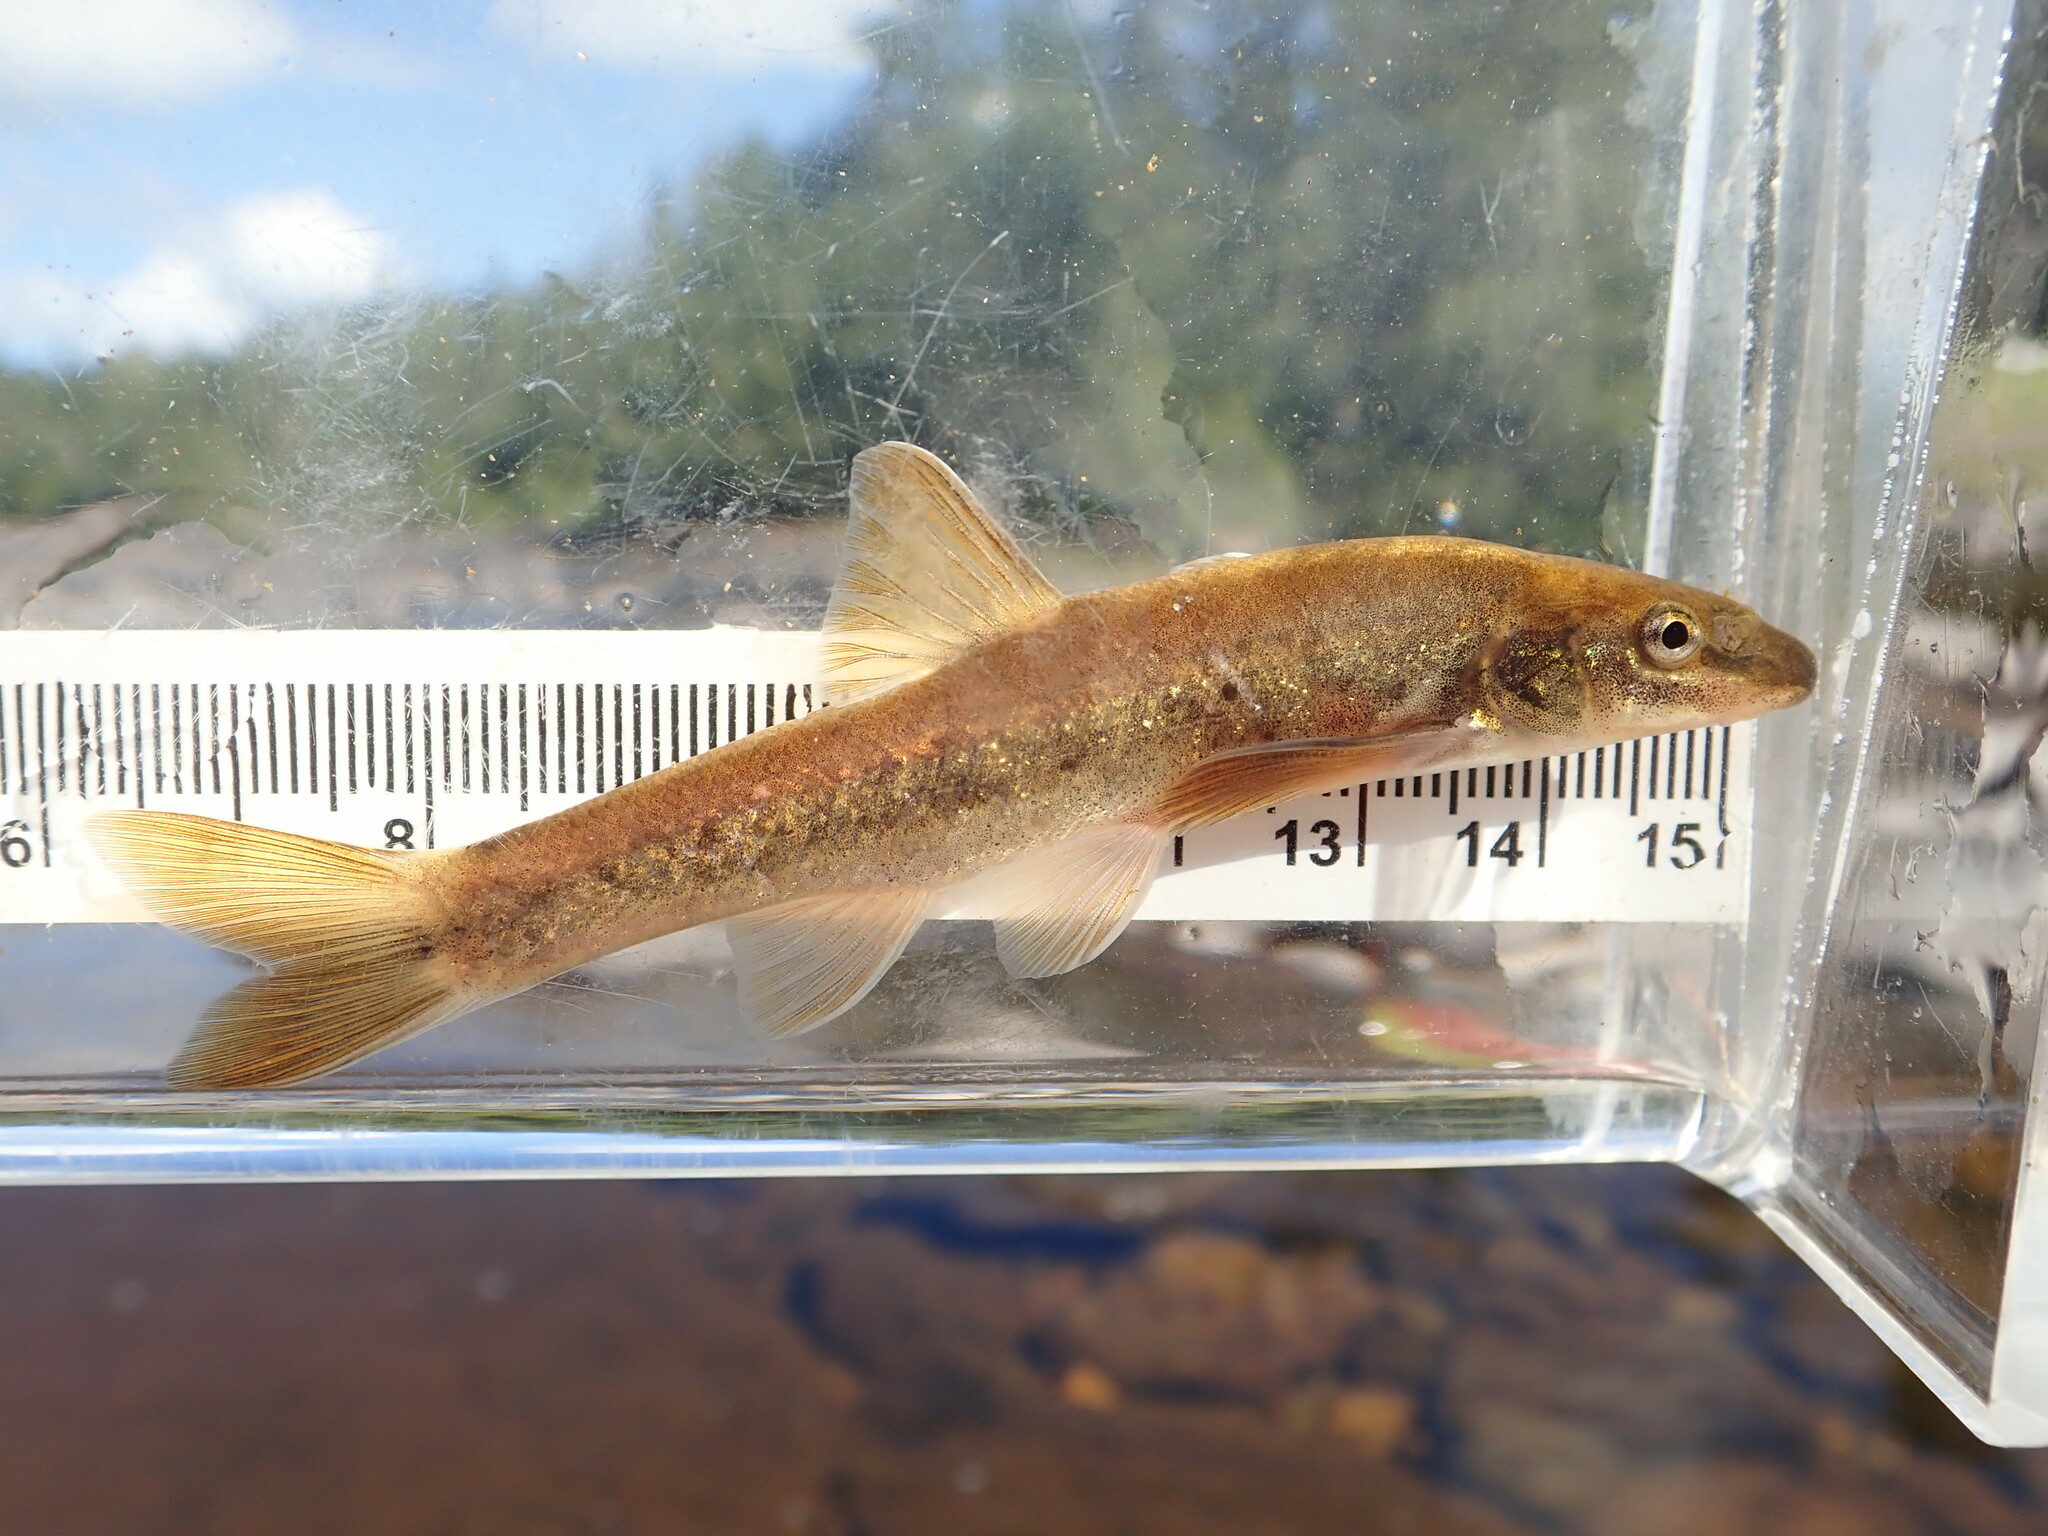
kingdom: Animalia
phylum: Chordata
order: Cypriniformes
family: Cyprinidae
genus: Rhinichthys
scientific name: Rhinichthys cataractae
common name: Longnose dace
